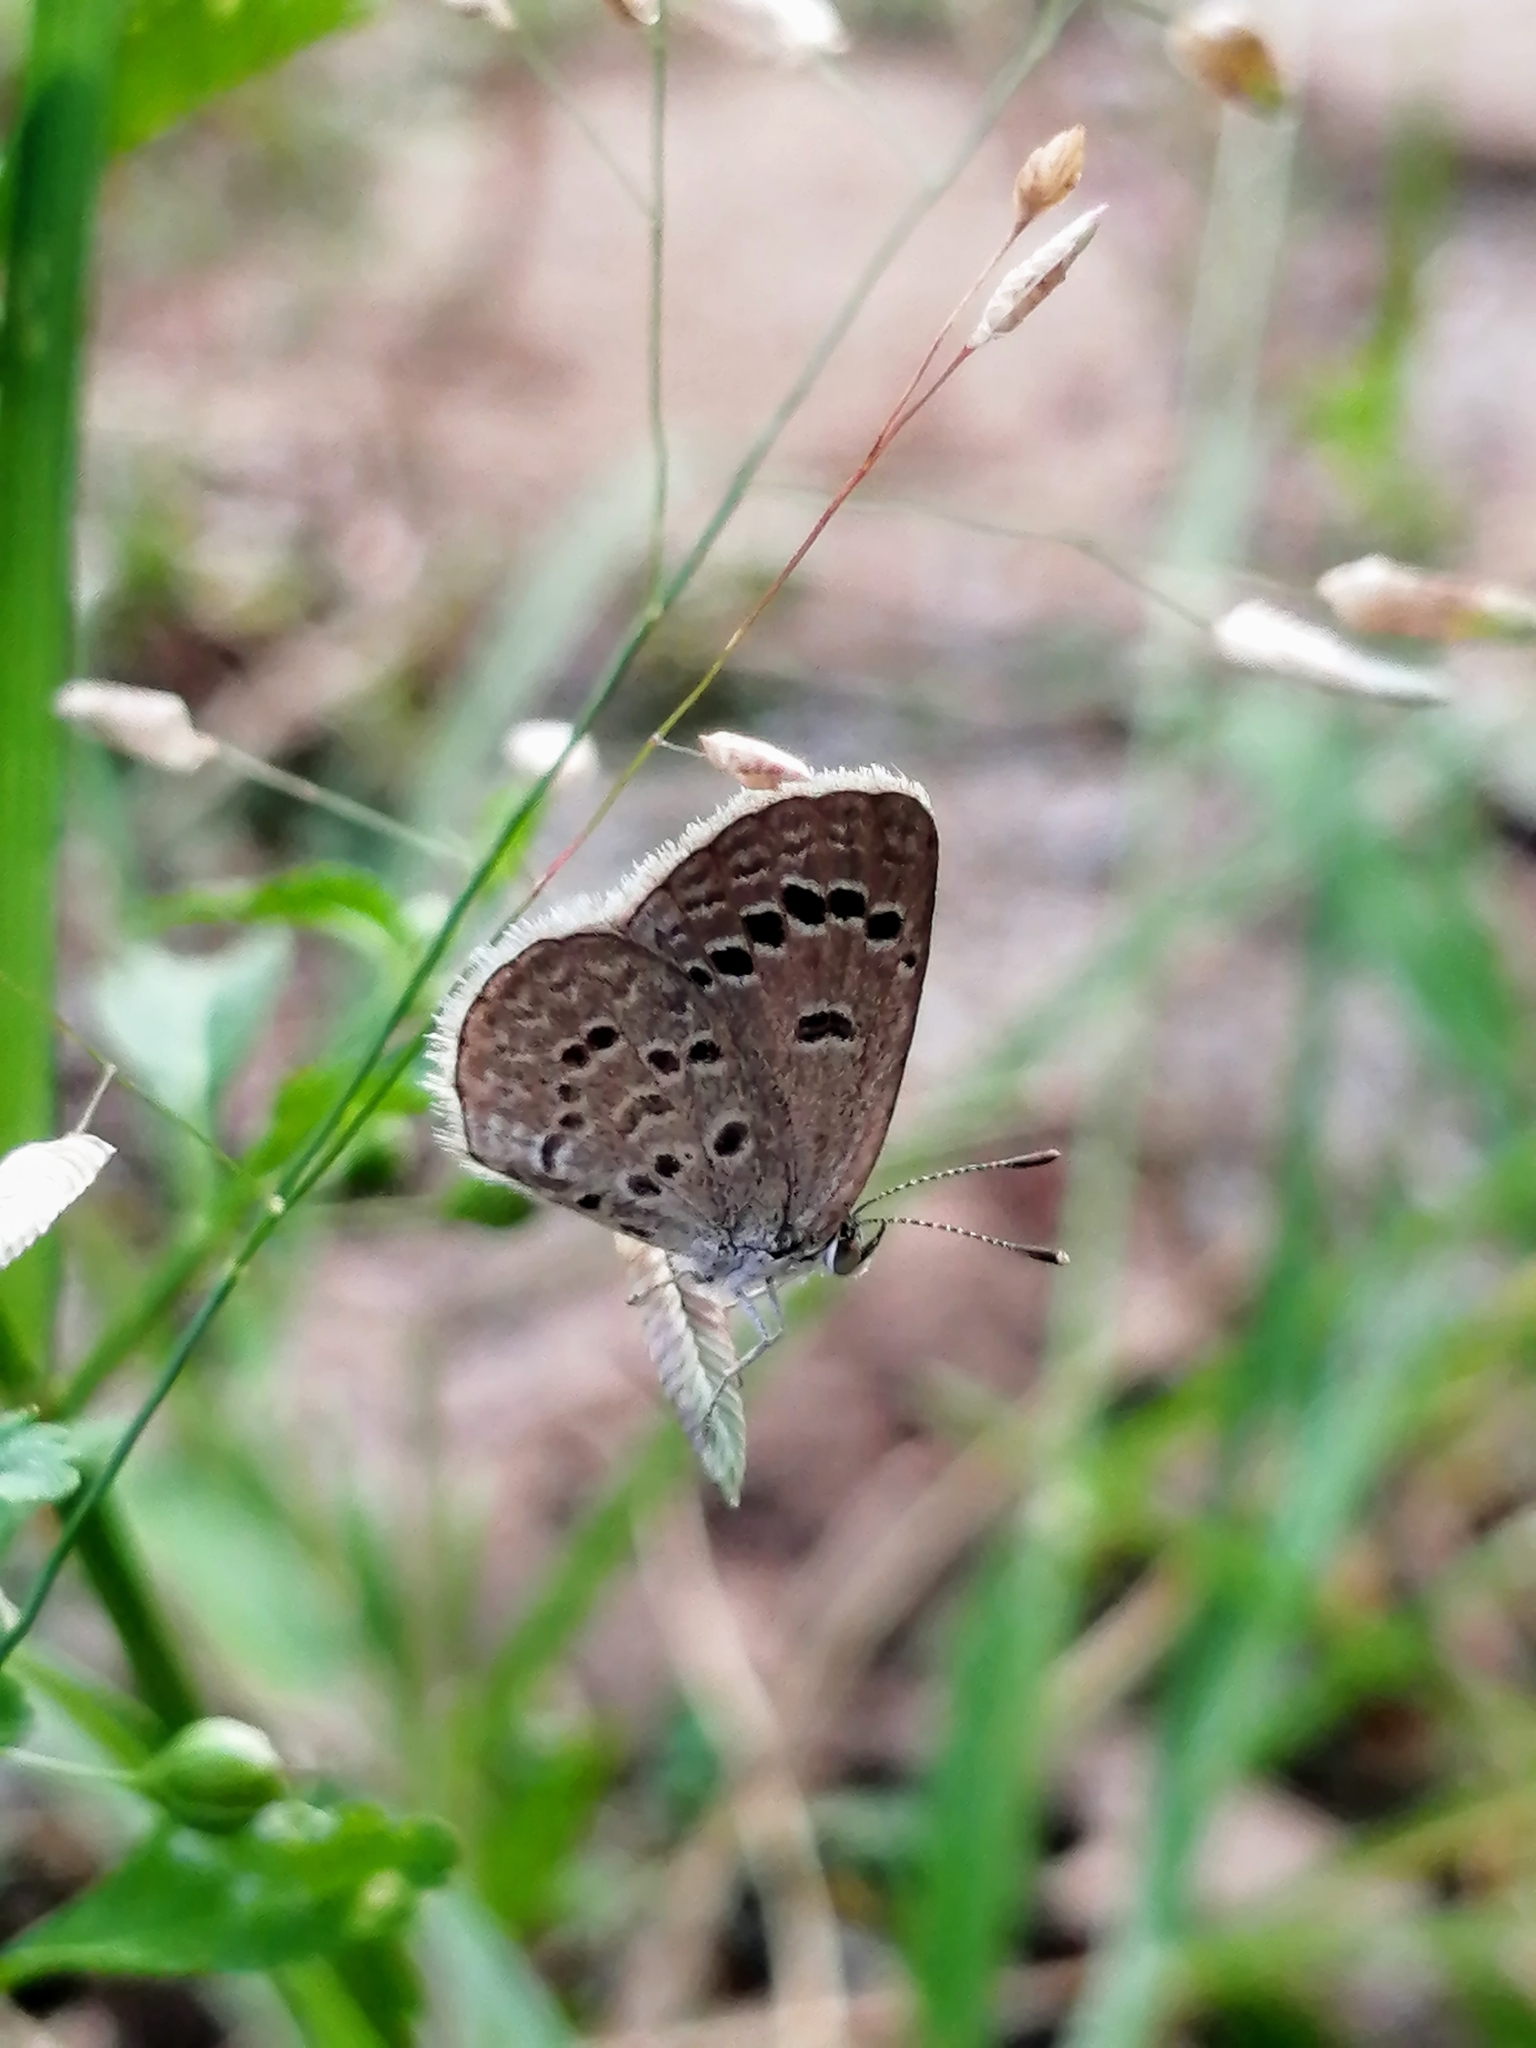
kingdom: Animalia
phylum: Arthropoda
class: Insecta
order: Lepidoptera
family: Lycaenidae
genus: Zizina
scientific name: Zizina otis
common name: Lesser grass blue
